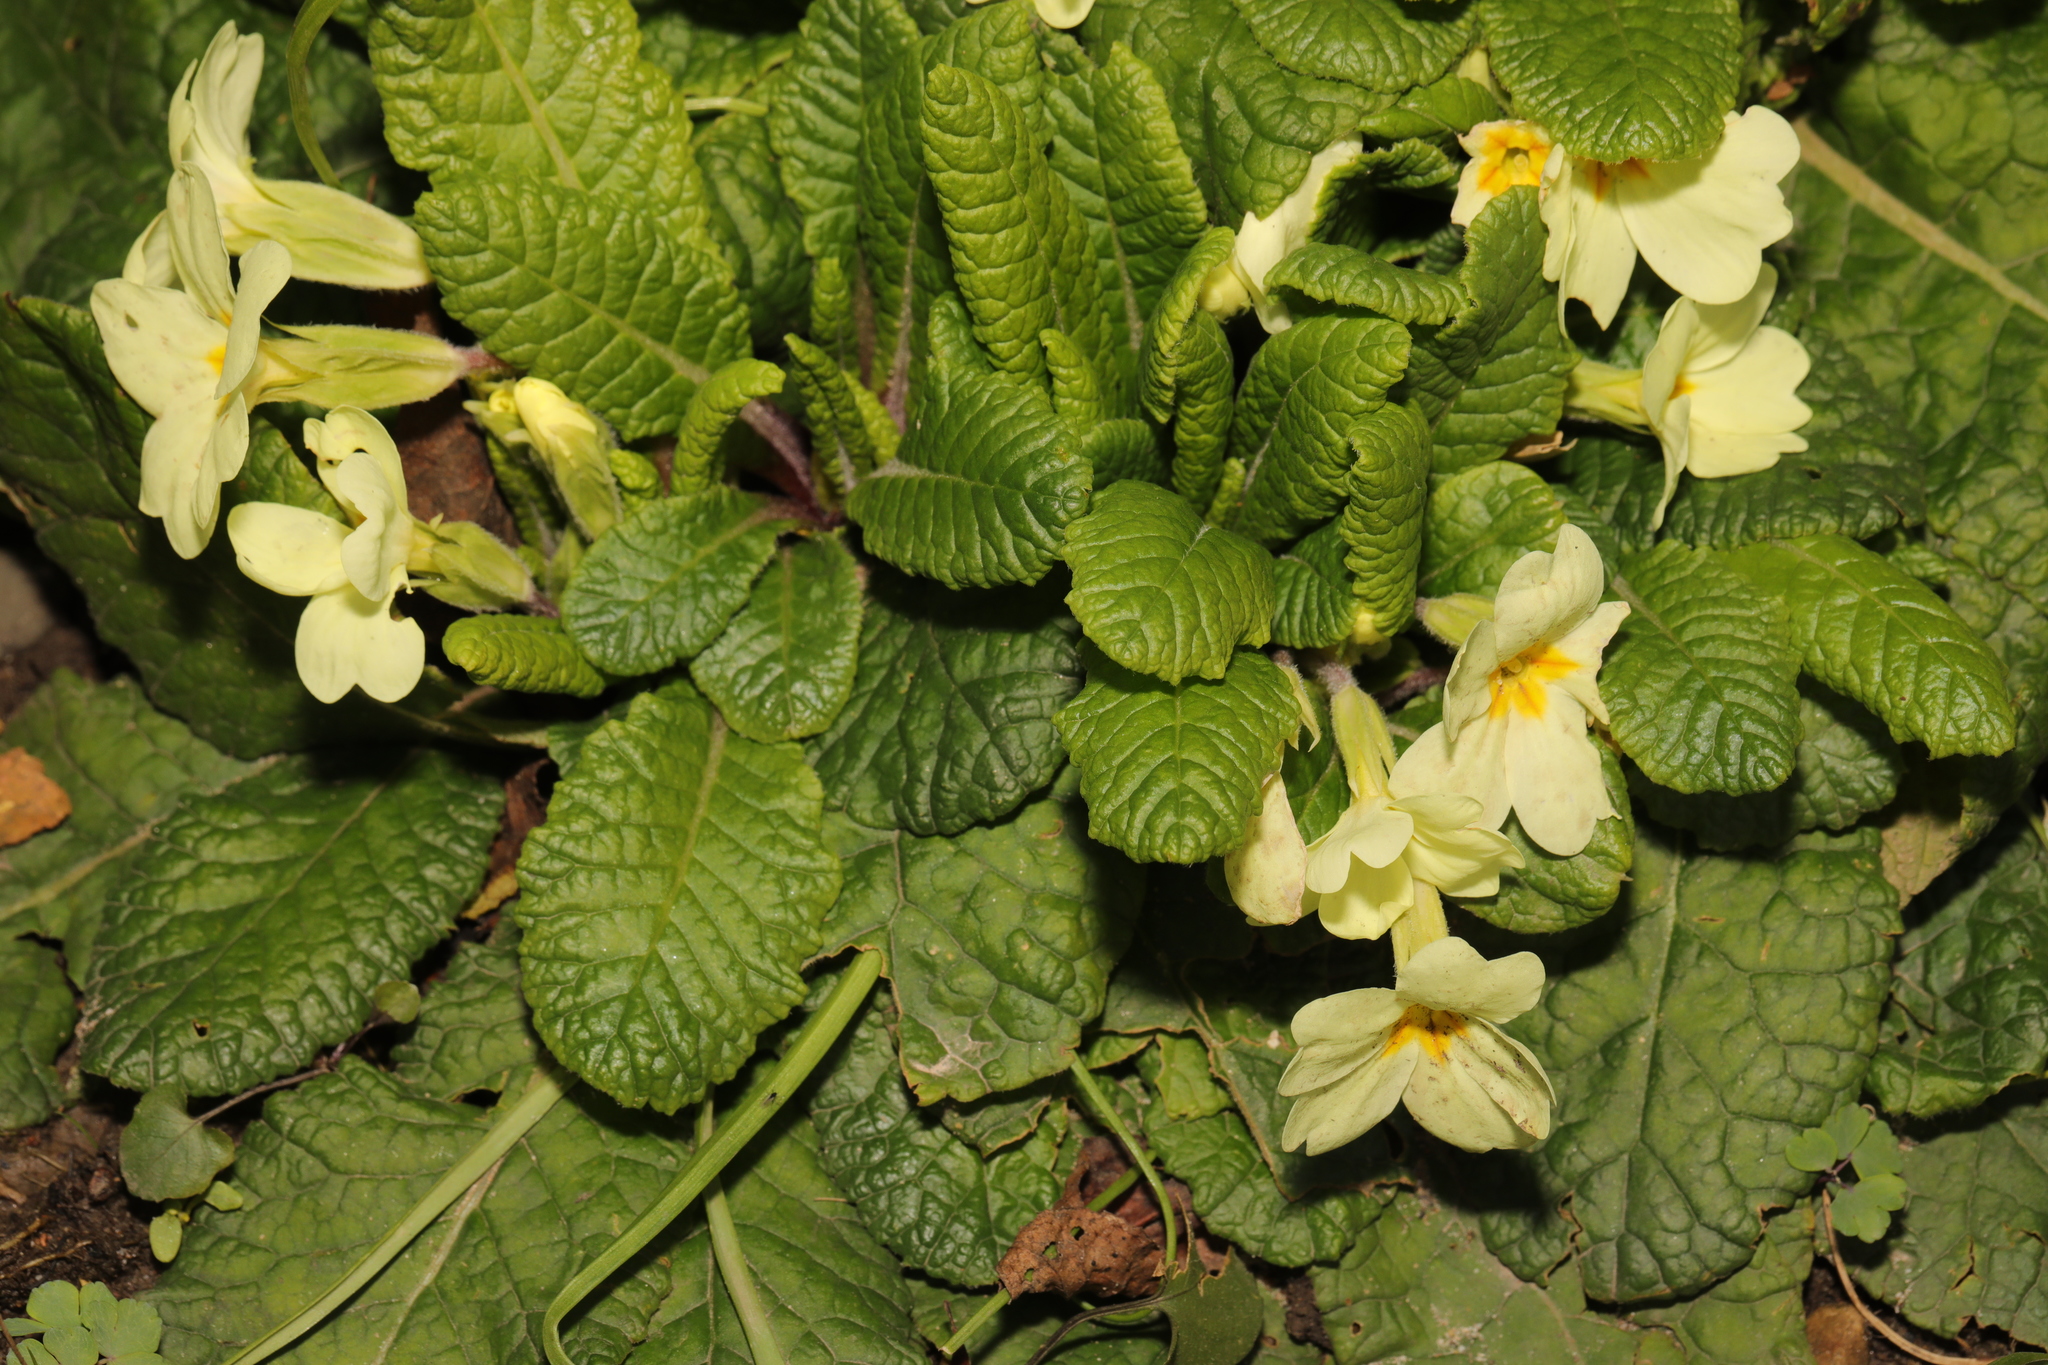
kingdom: Plantae
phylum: Tracheophyta
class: Magnoliopsida
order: Ericales
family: Primulaceae
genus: Primula
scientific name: Primula vulgaris
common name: Primrose
